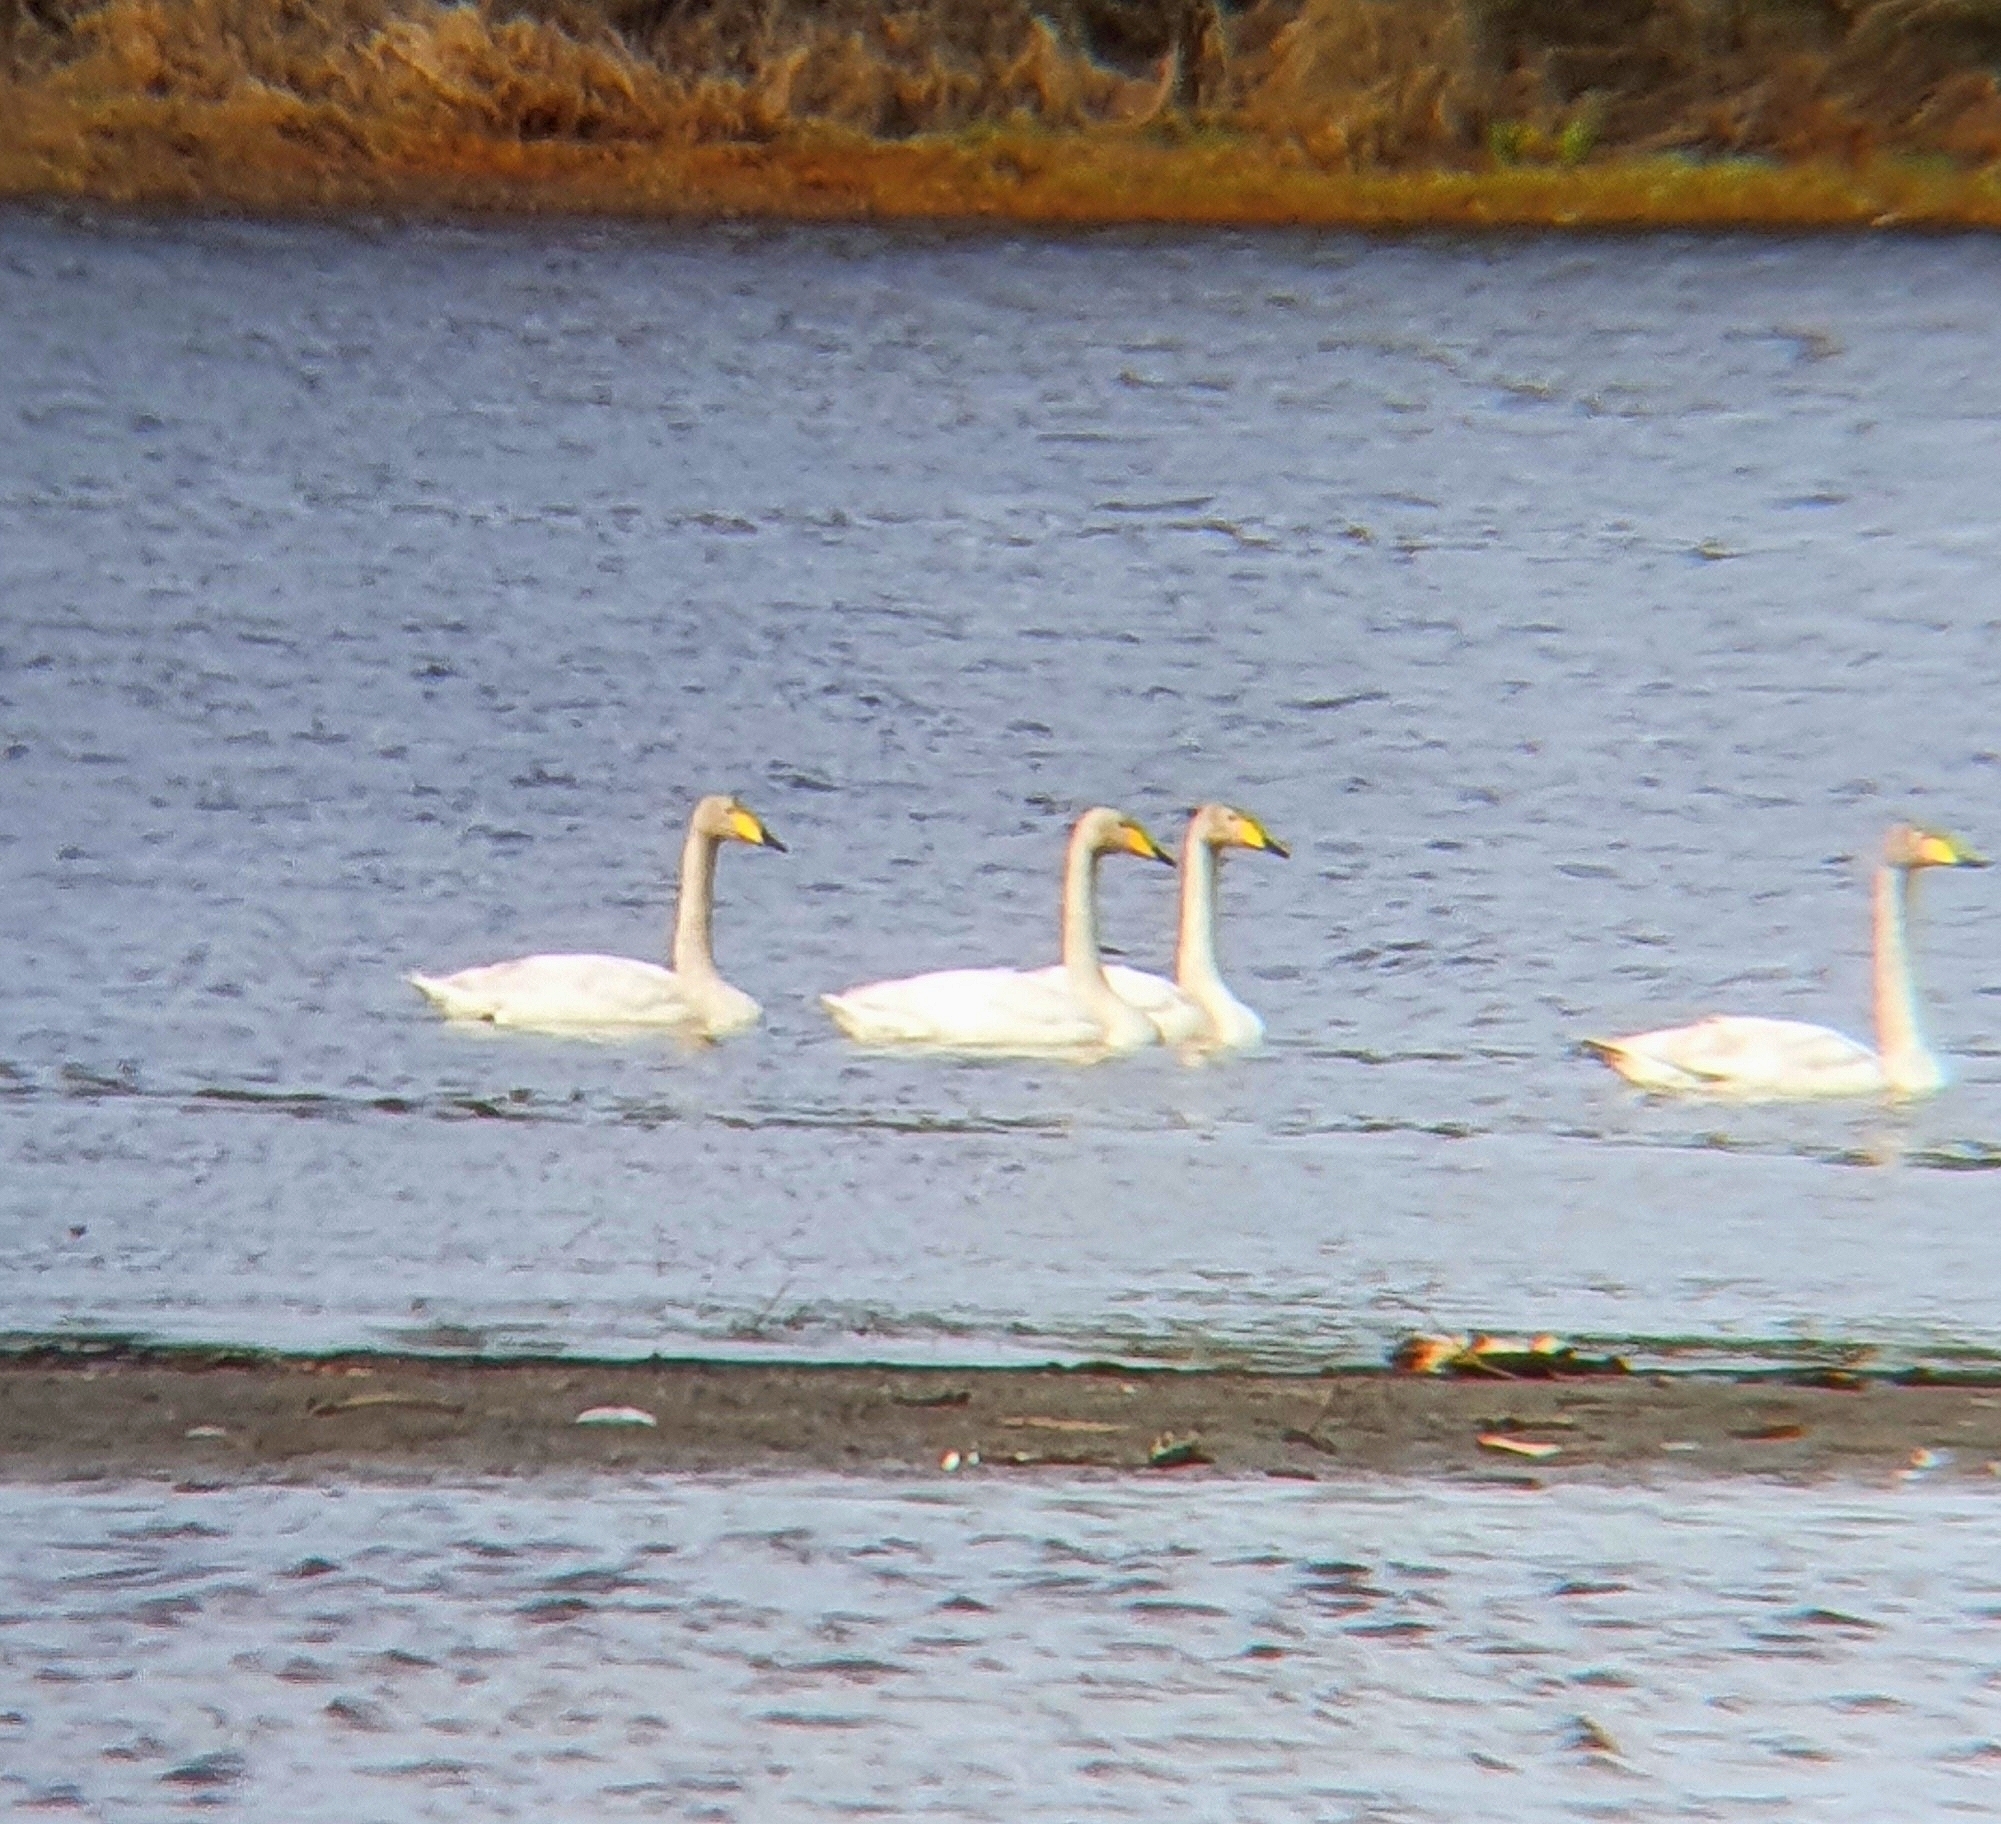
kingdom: Animalia
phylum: Chordata
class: Aves
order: Anseriformes
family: Anatidae
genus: Cygnus
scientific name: Cygnus cygnus
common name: Whooper swan
